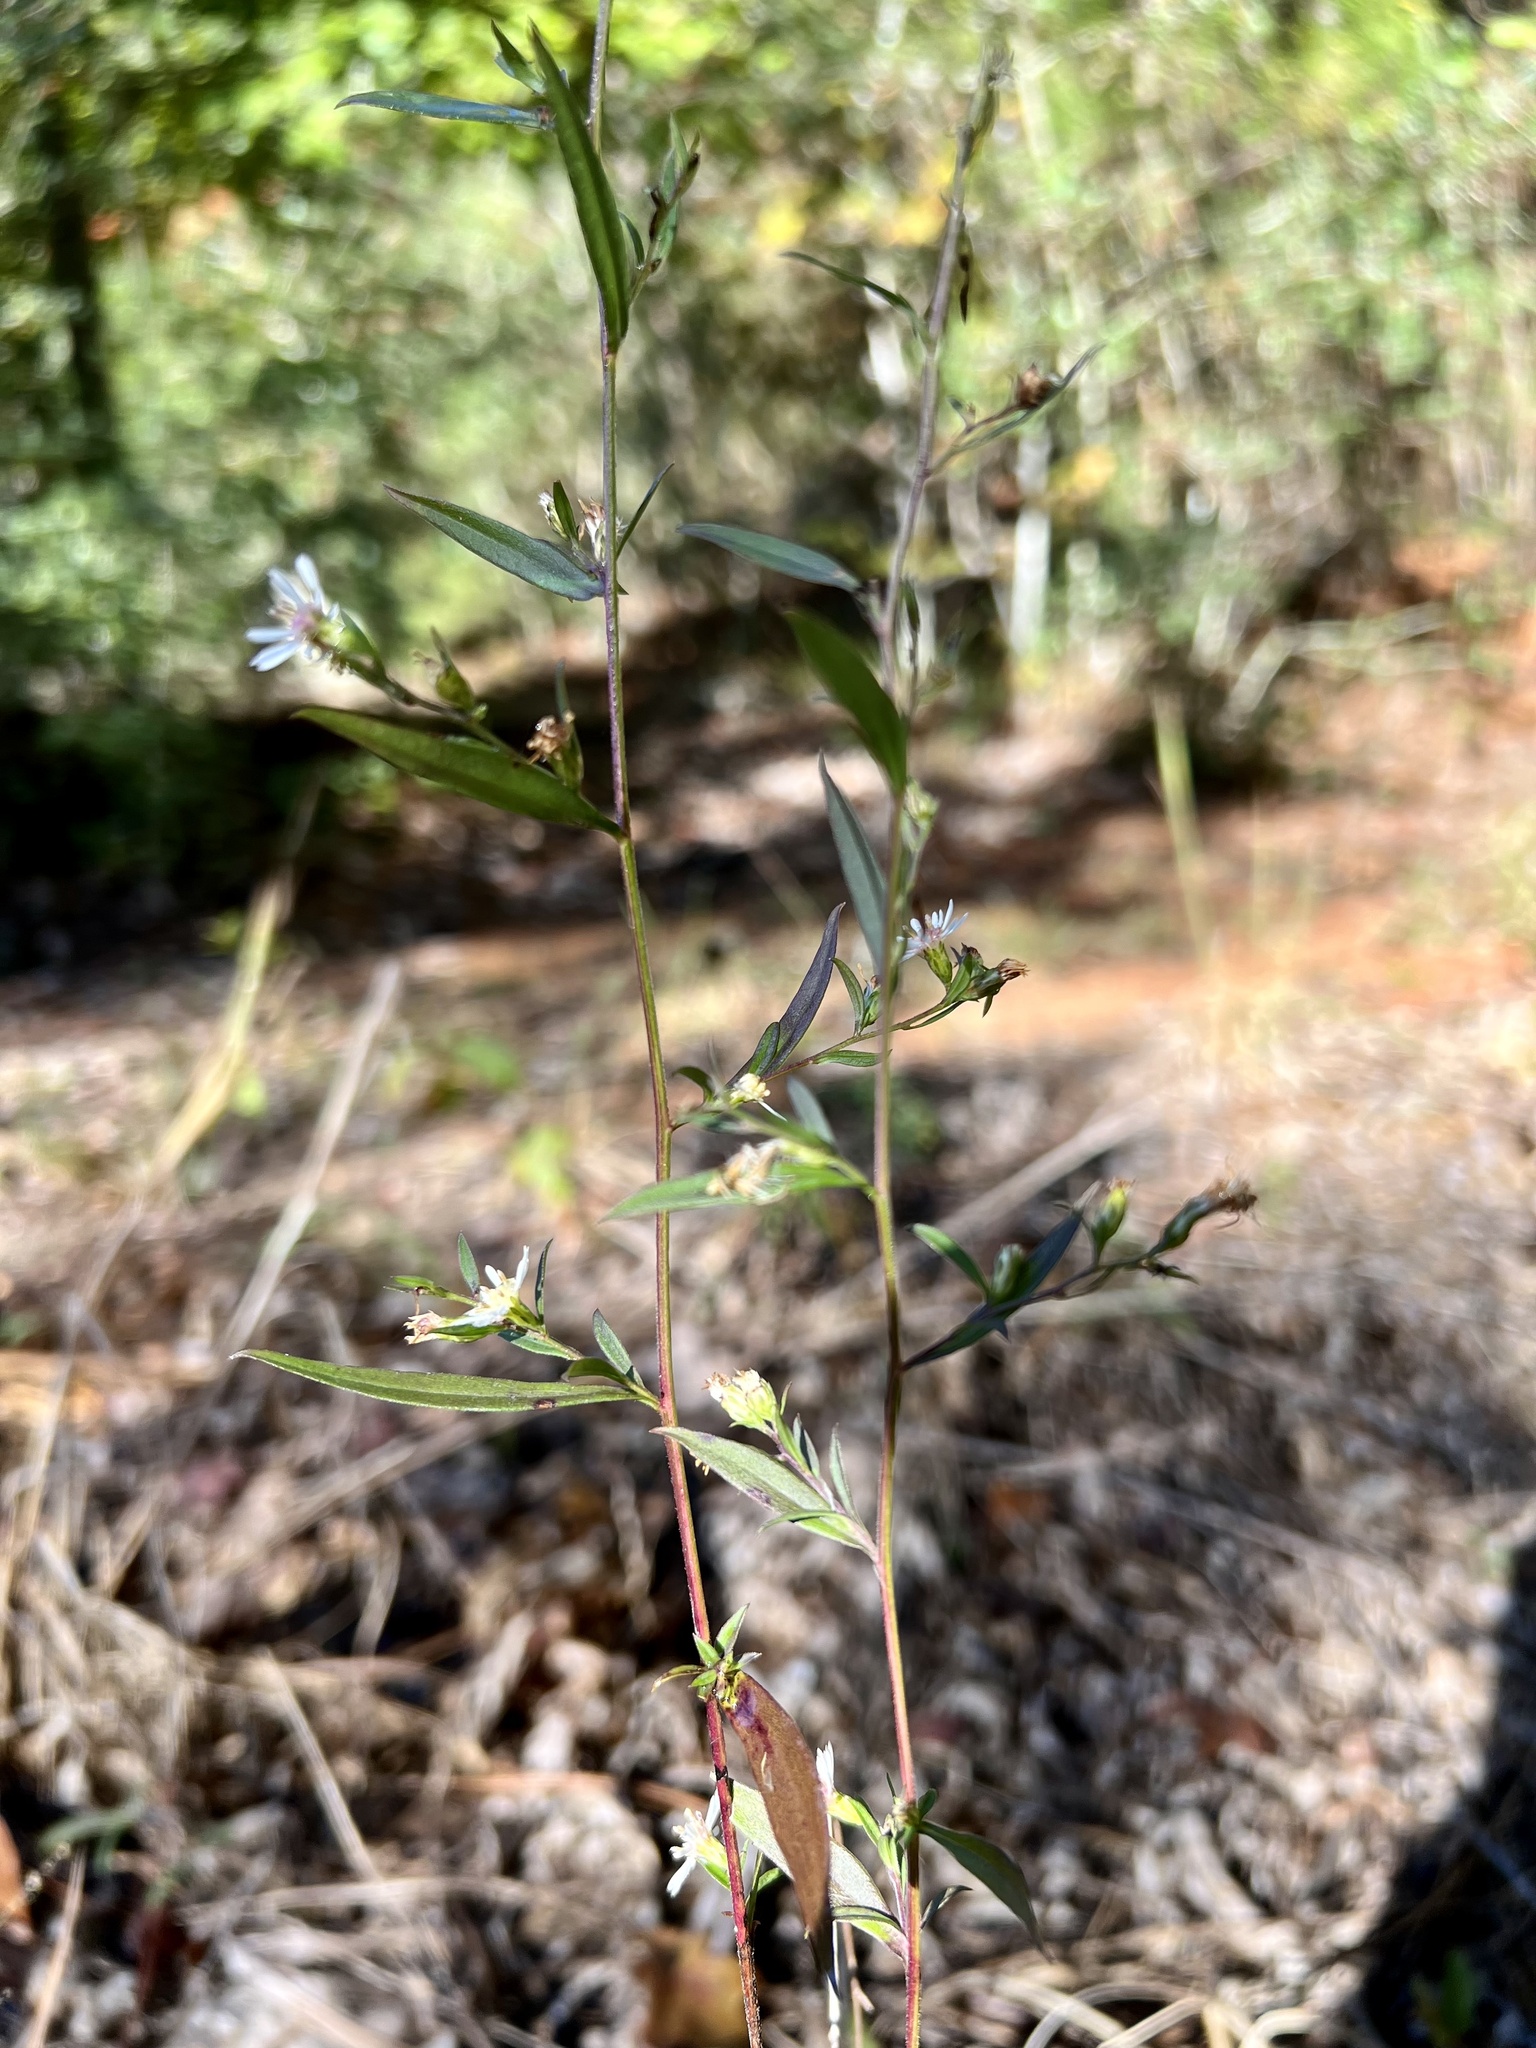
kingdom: Plantae
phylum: Tracheophyta
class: Magnoliopsida
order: Asterales
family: Asteraceae
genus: Symphyotrichum
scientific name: Symphyotrichum lanceolatum
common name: Panicled aster
